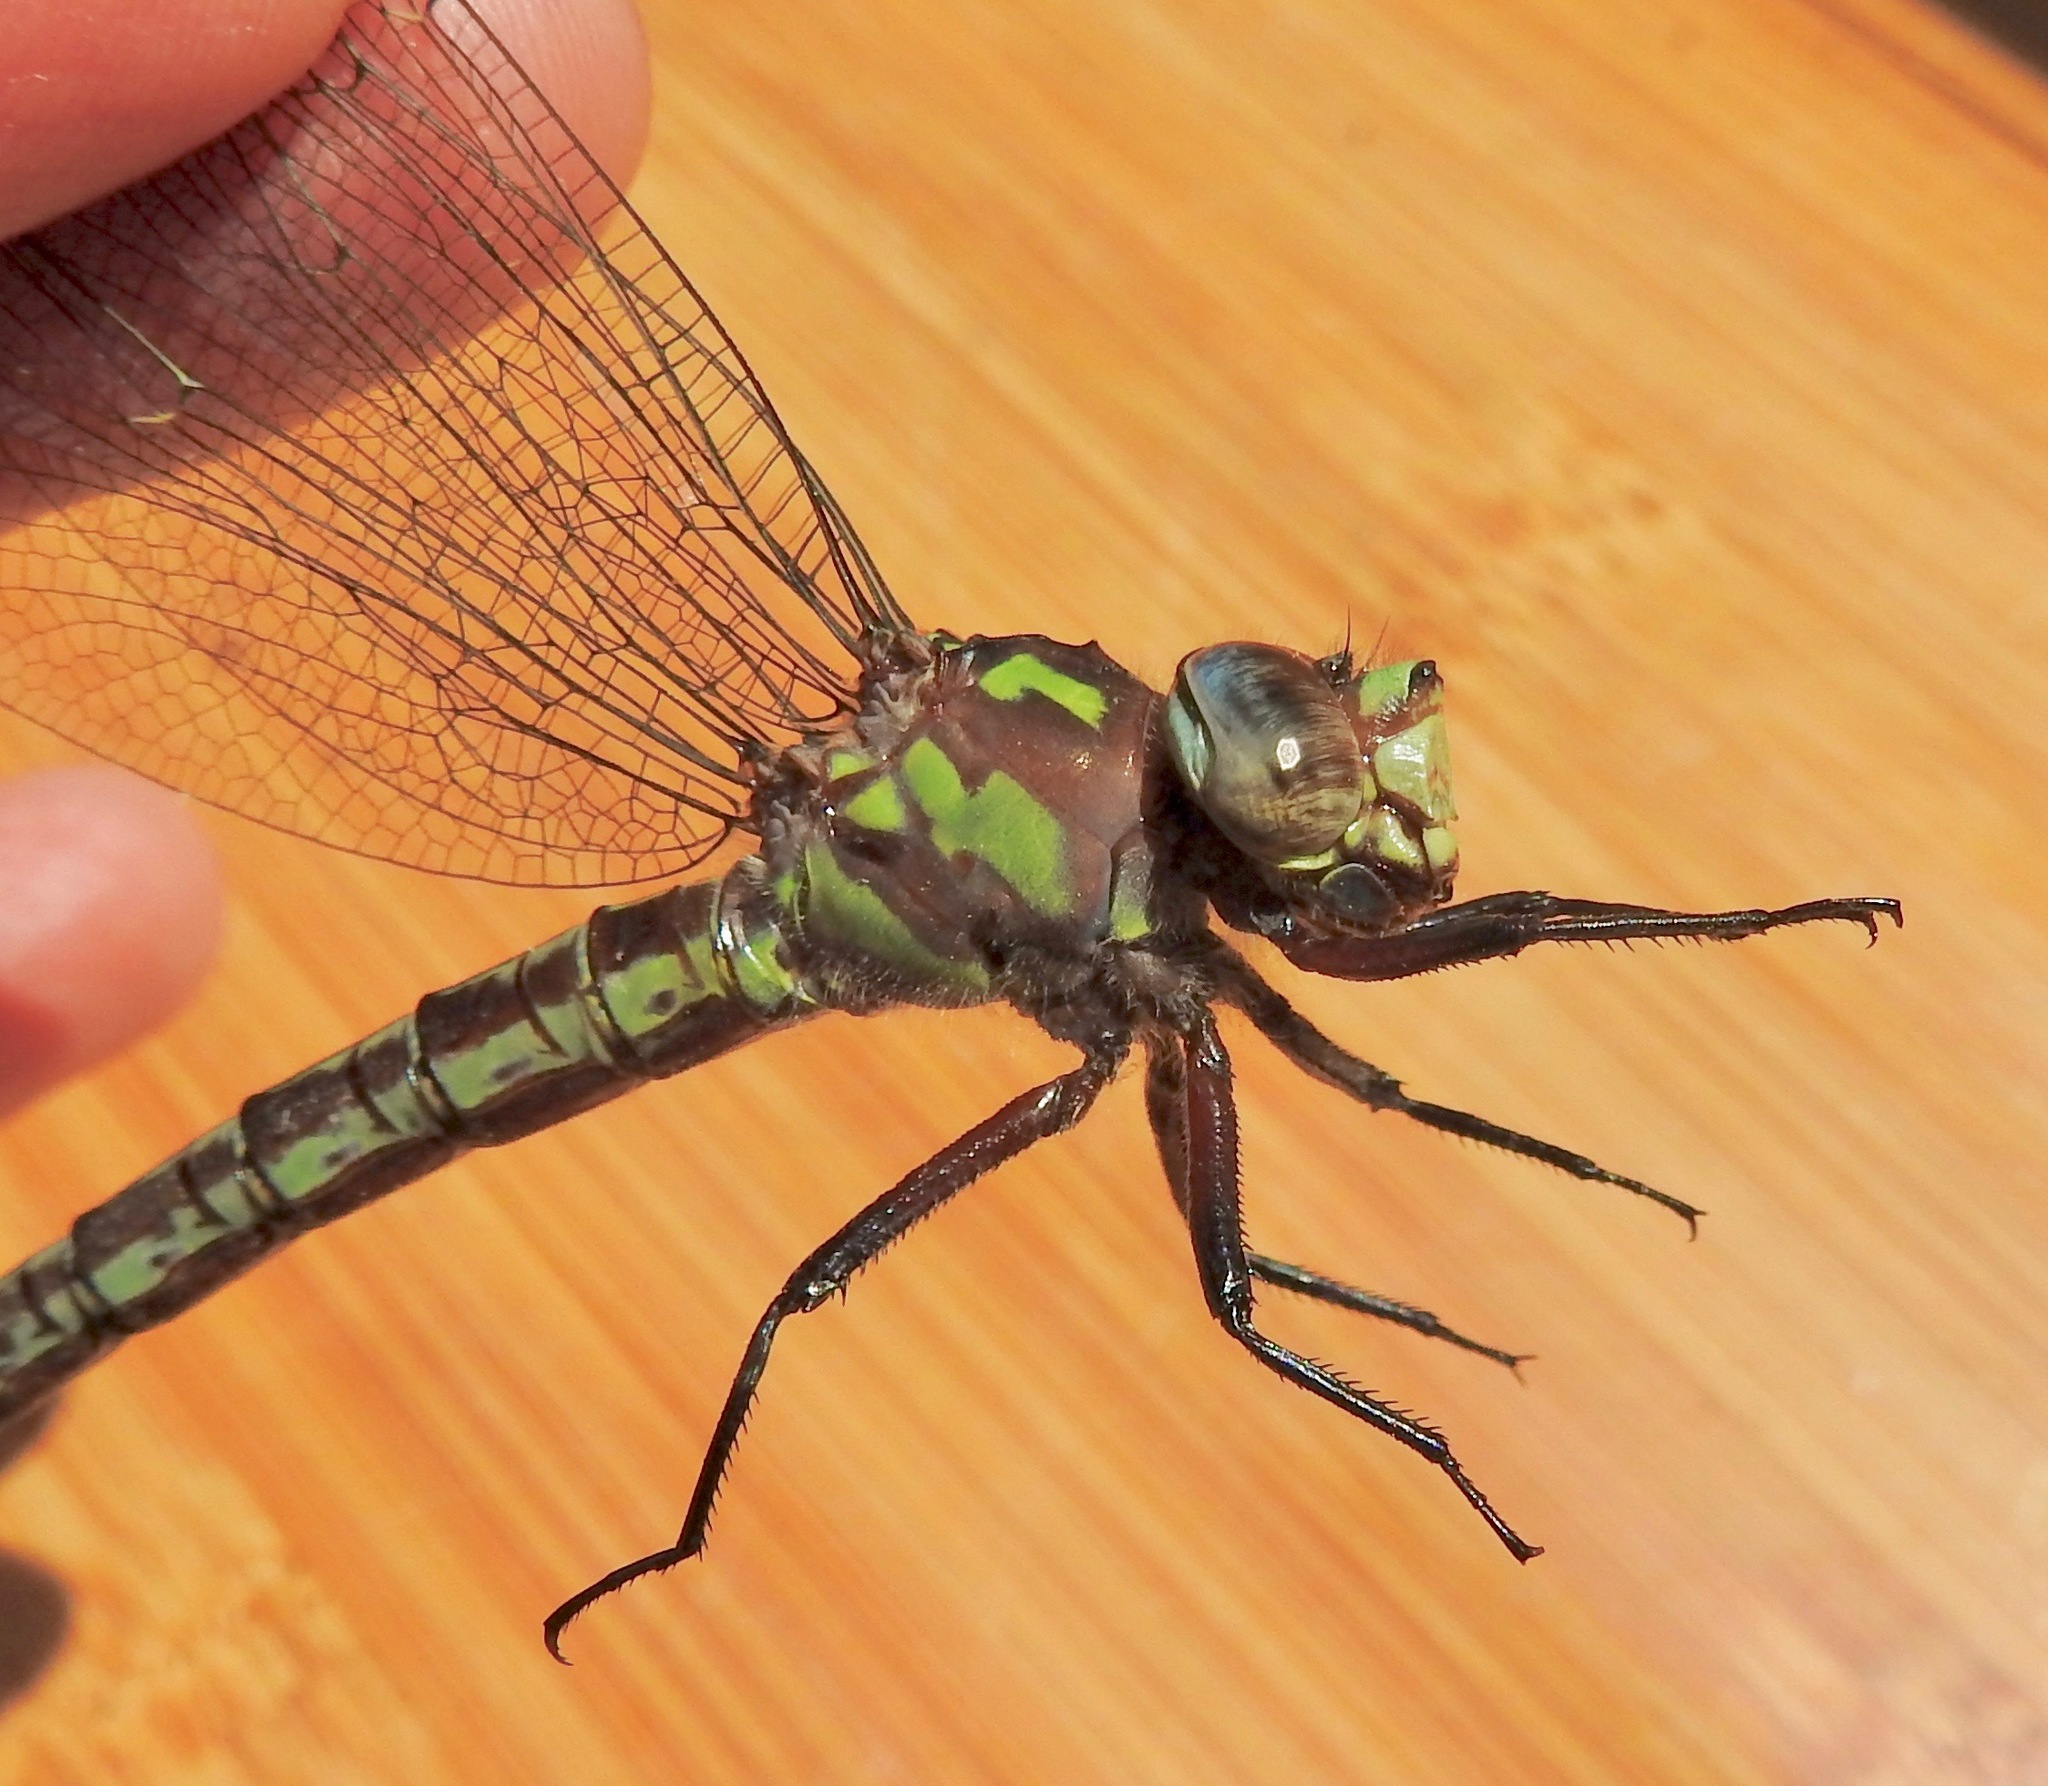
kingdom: Animalia
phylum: Arthropoda
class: Insecta
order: Odonata
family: Aeshnidae
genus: Nasiaeschna
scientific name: Nasiaeschna pentacantha
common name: Cyrano darner
